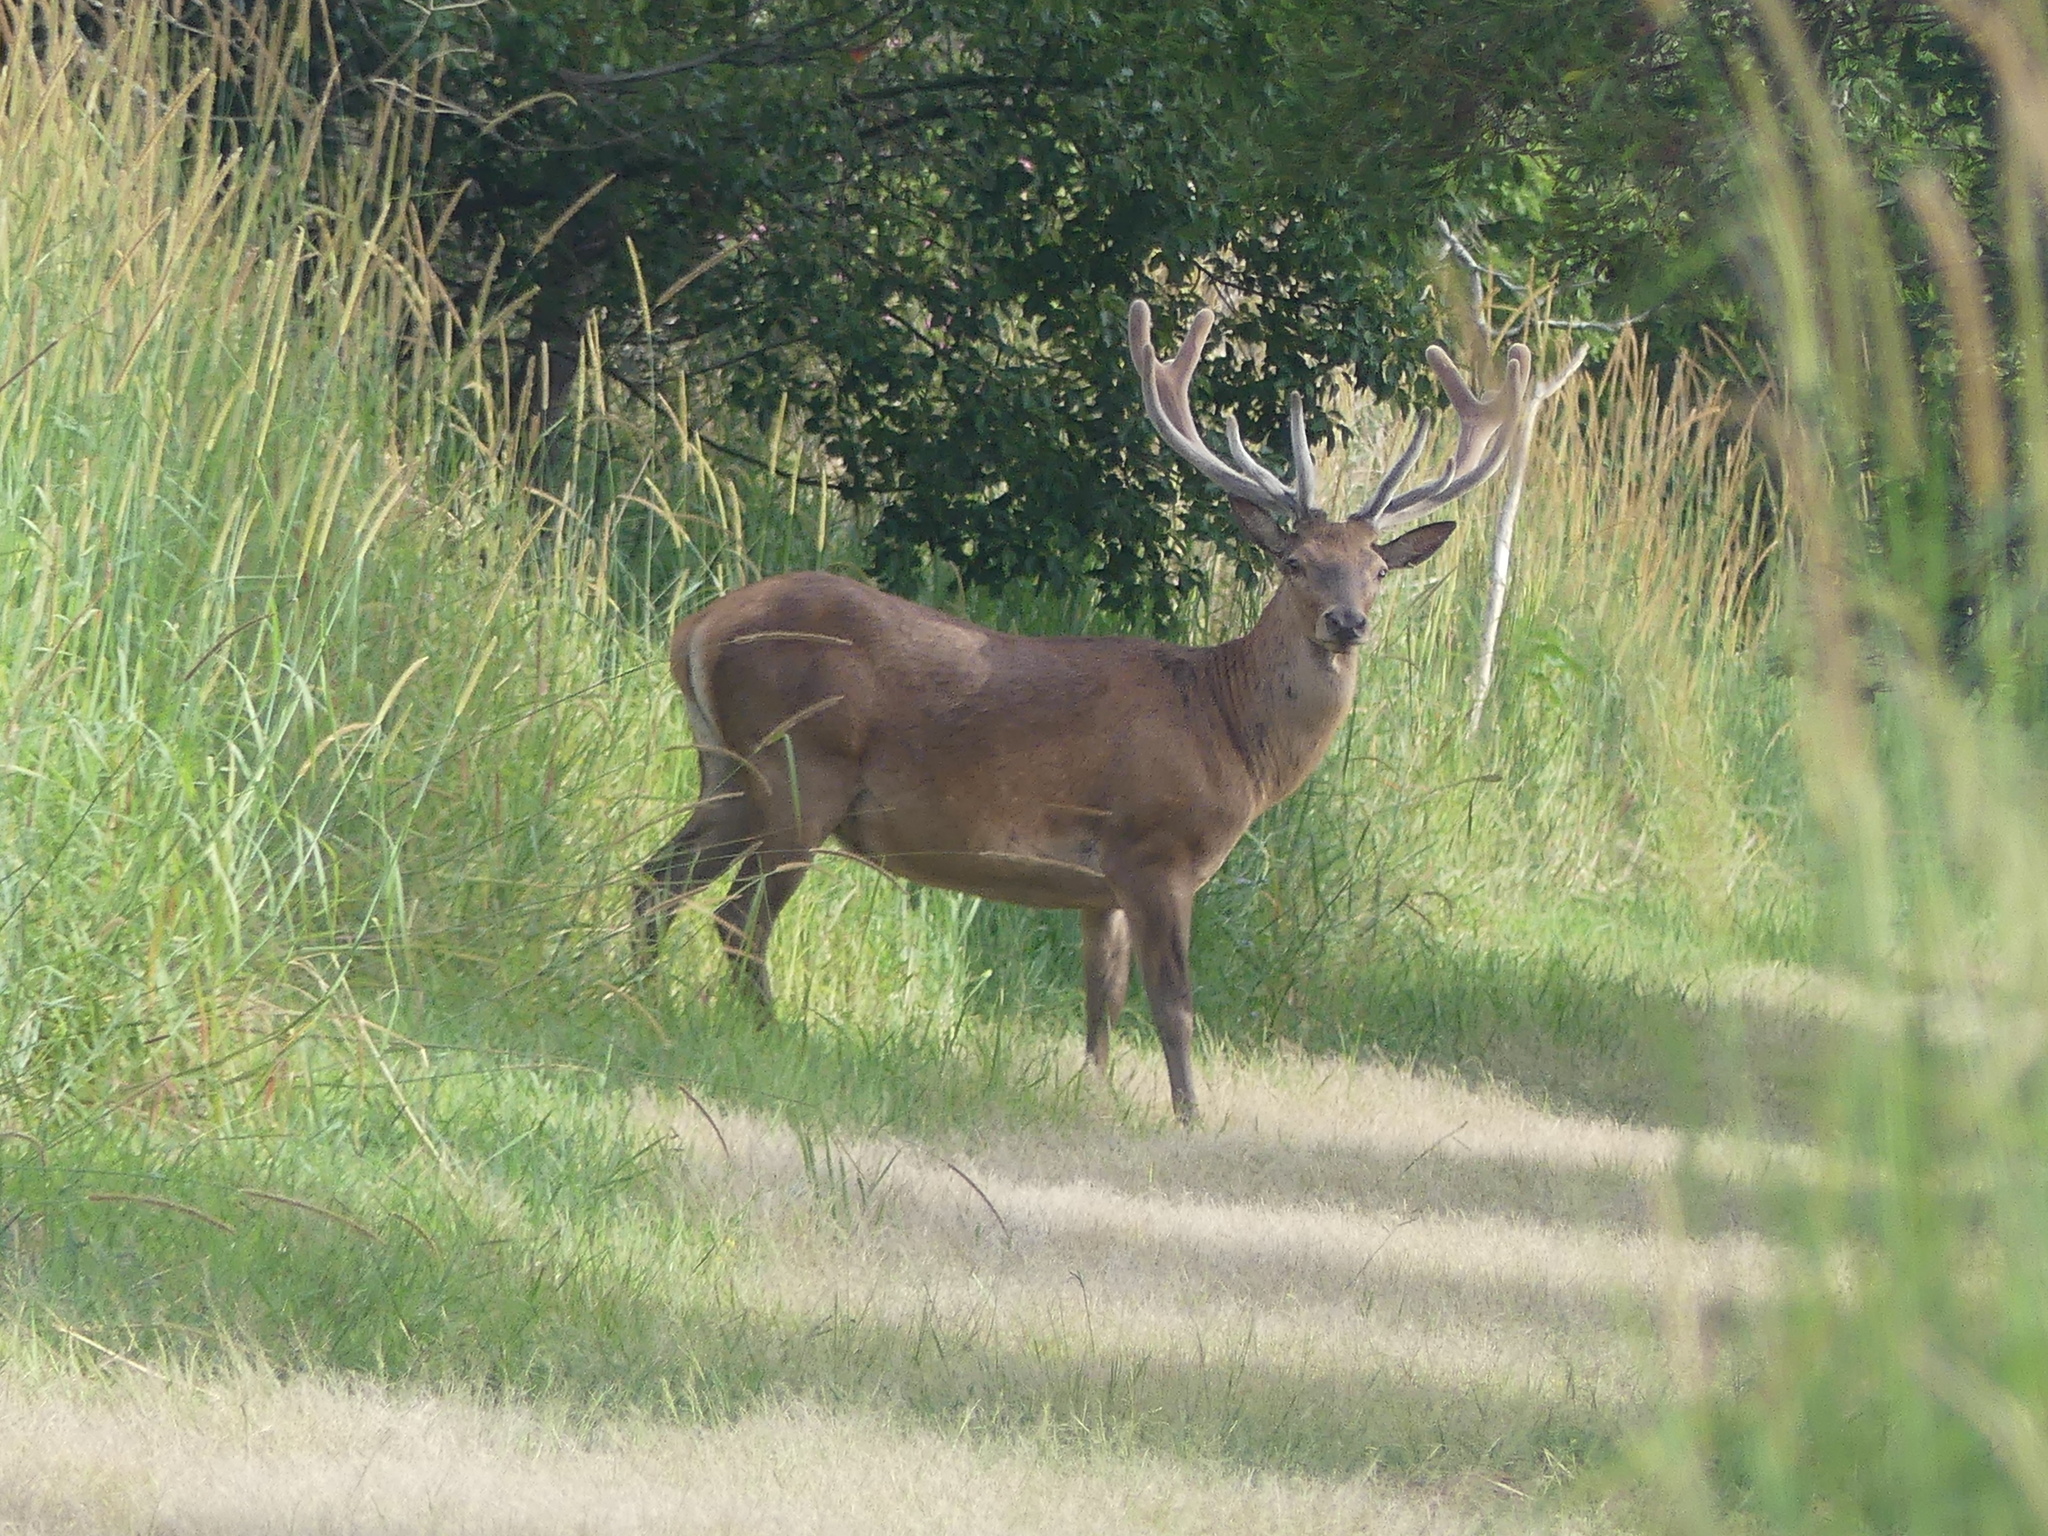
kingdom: Animalia
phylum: Chordata
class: Mammalia
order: Artiodactyla
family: Cervidae
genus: Cervus
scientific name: Cervus elaphus
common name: Red deer
